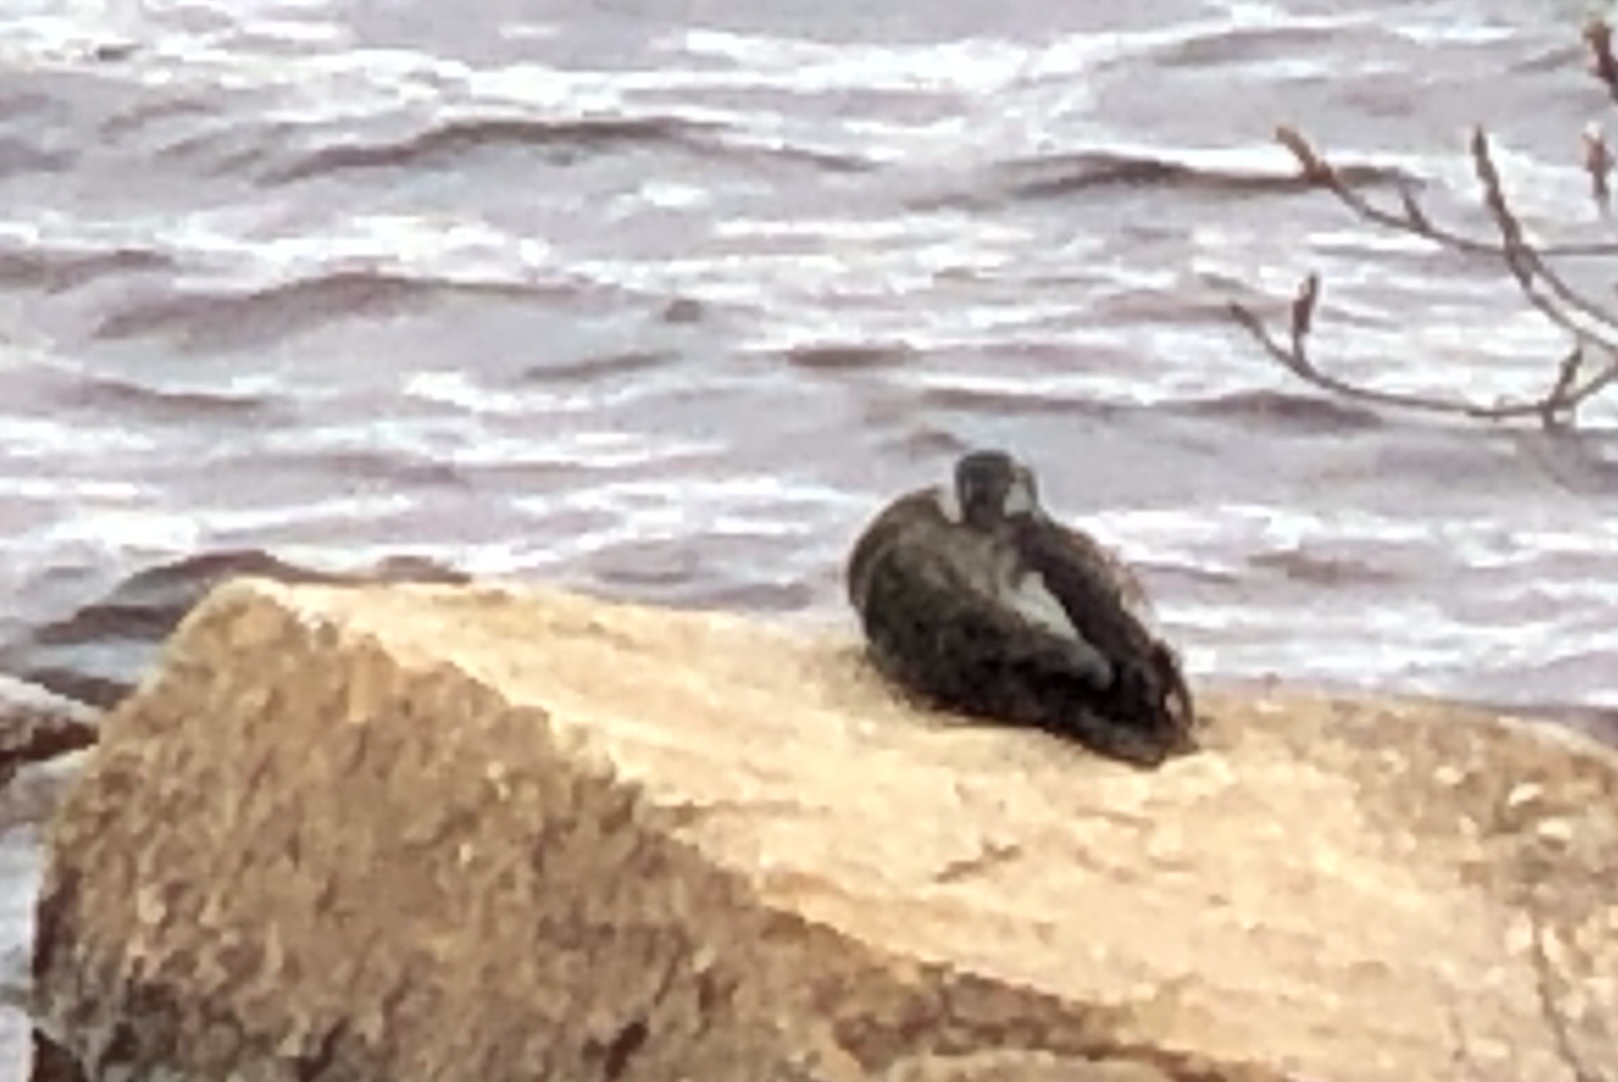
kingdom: Animalia
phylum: Chordata
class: Aves
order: Anseriformes
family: Anatidae
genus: Anas
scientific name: Anas rubripes
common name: American black duck
